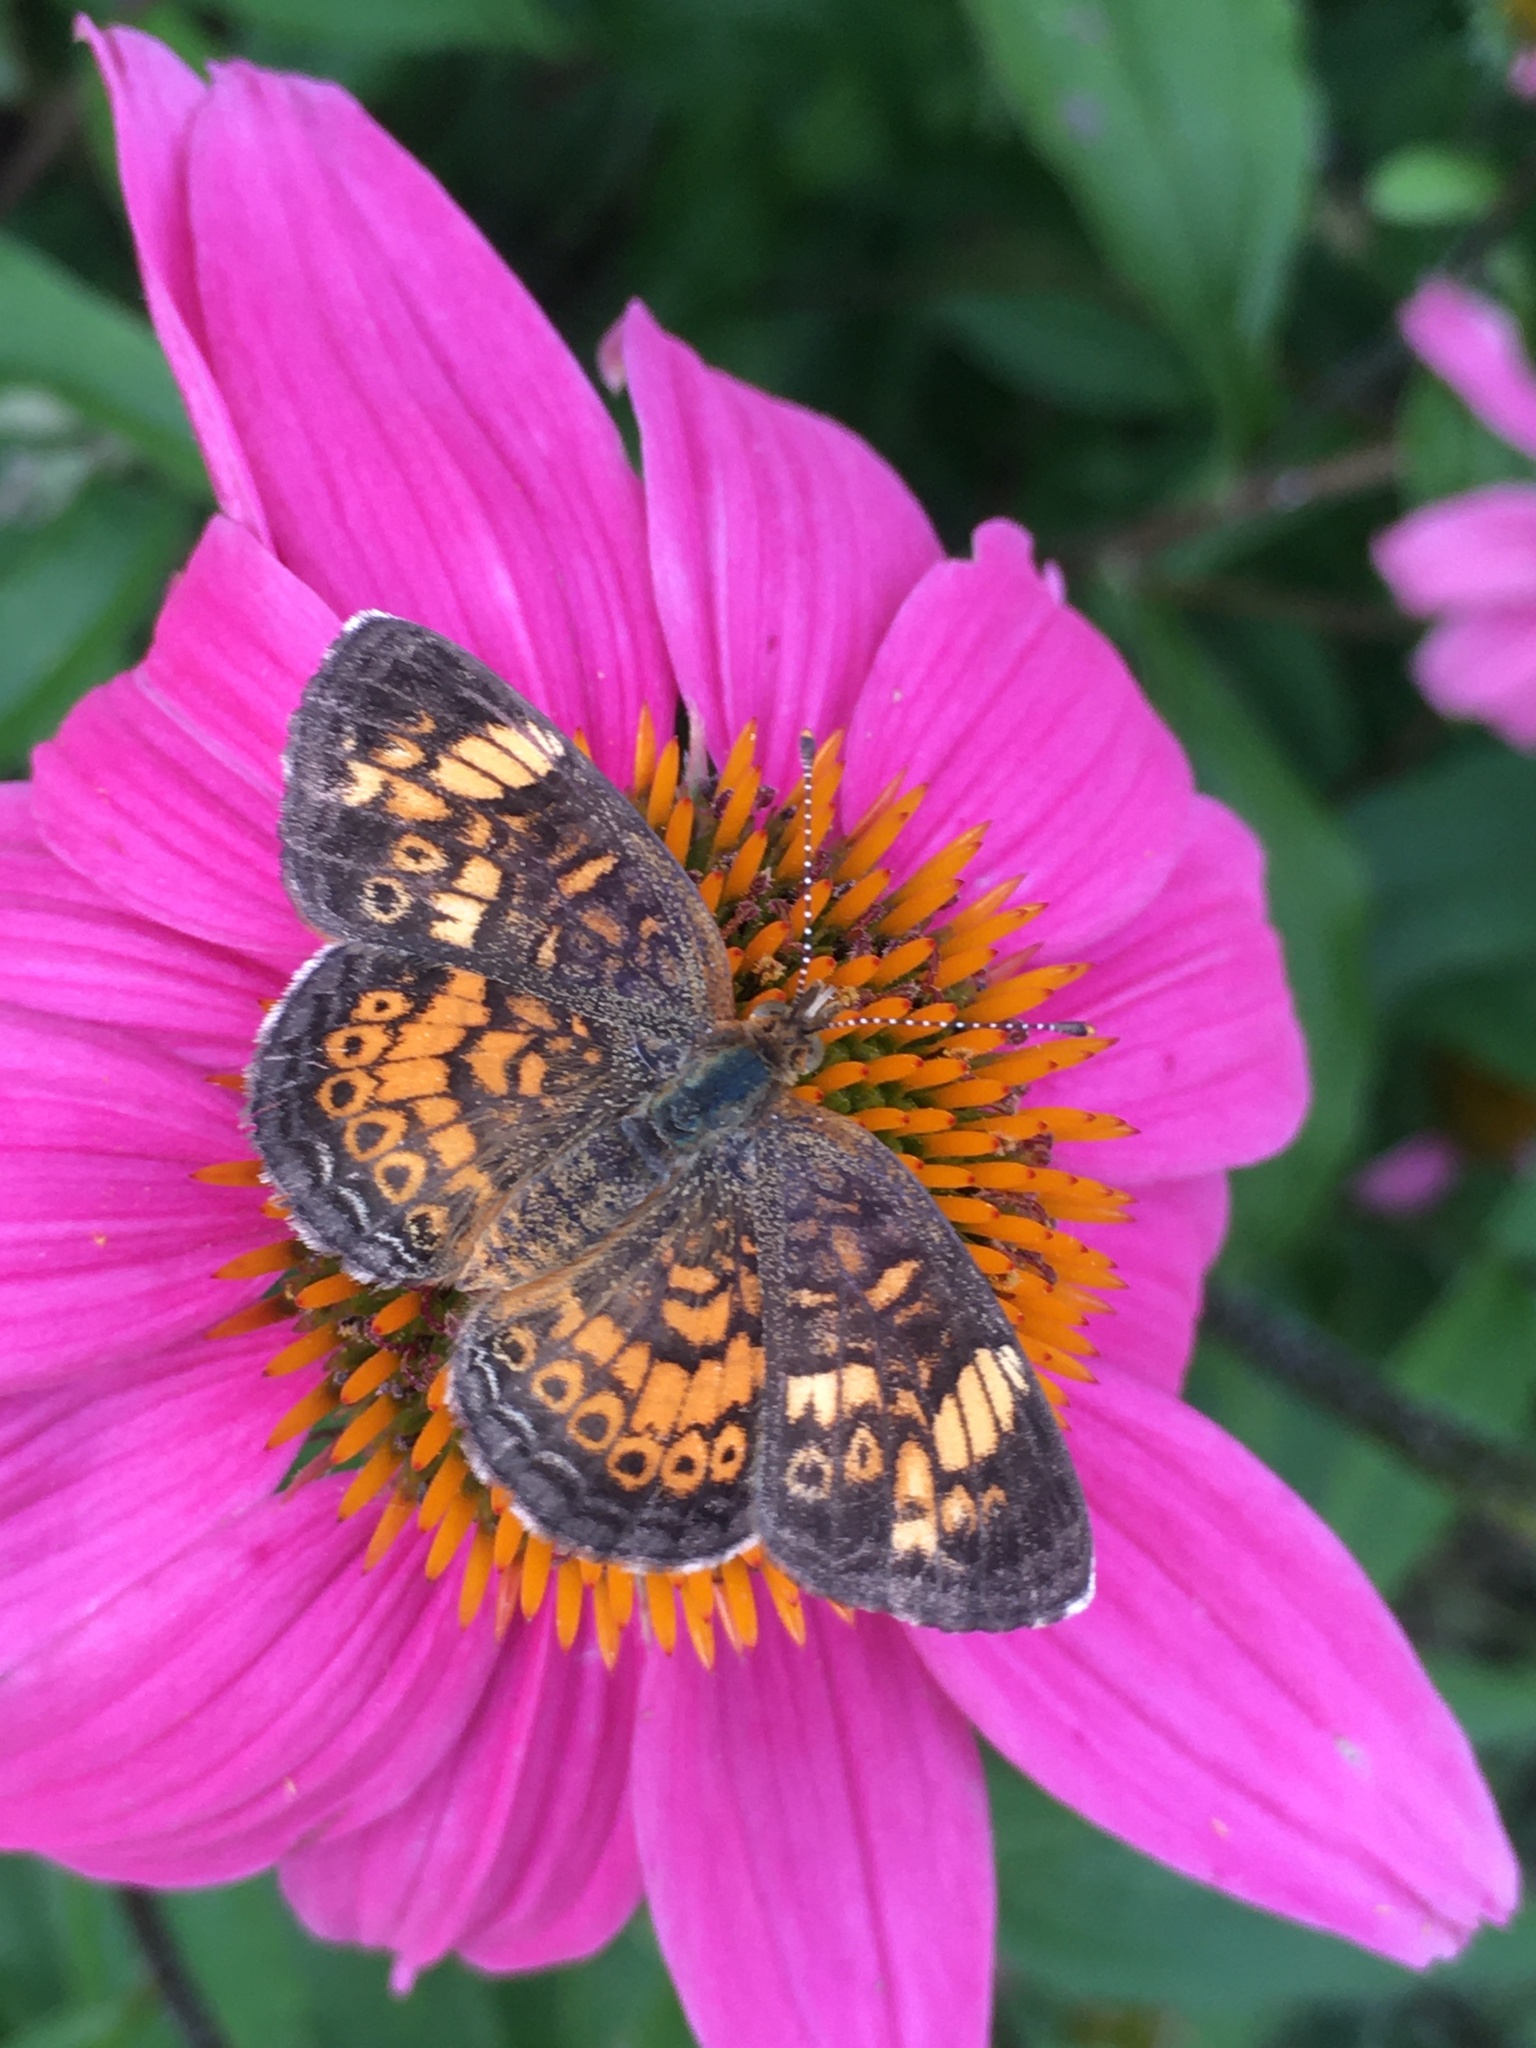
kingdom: Animalia
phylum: Arthropoda
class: Insecta
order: Lepidoptera
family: Nymphalidae
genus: Phyciodes
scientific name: Phyciodes tharos
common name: Pearl crescent
